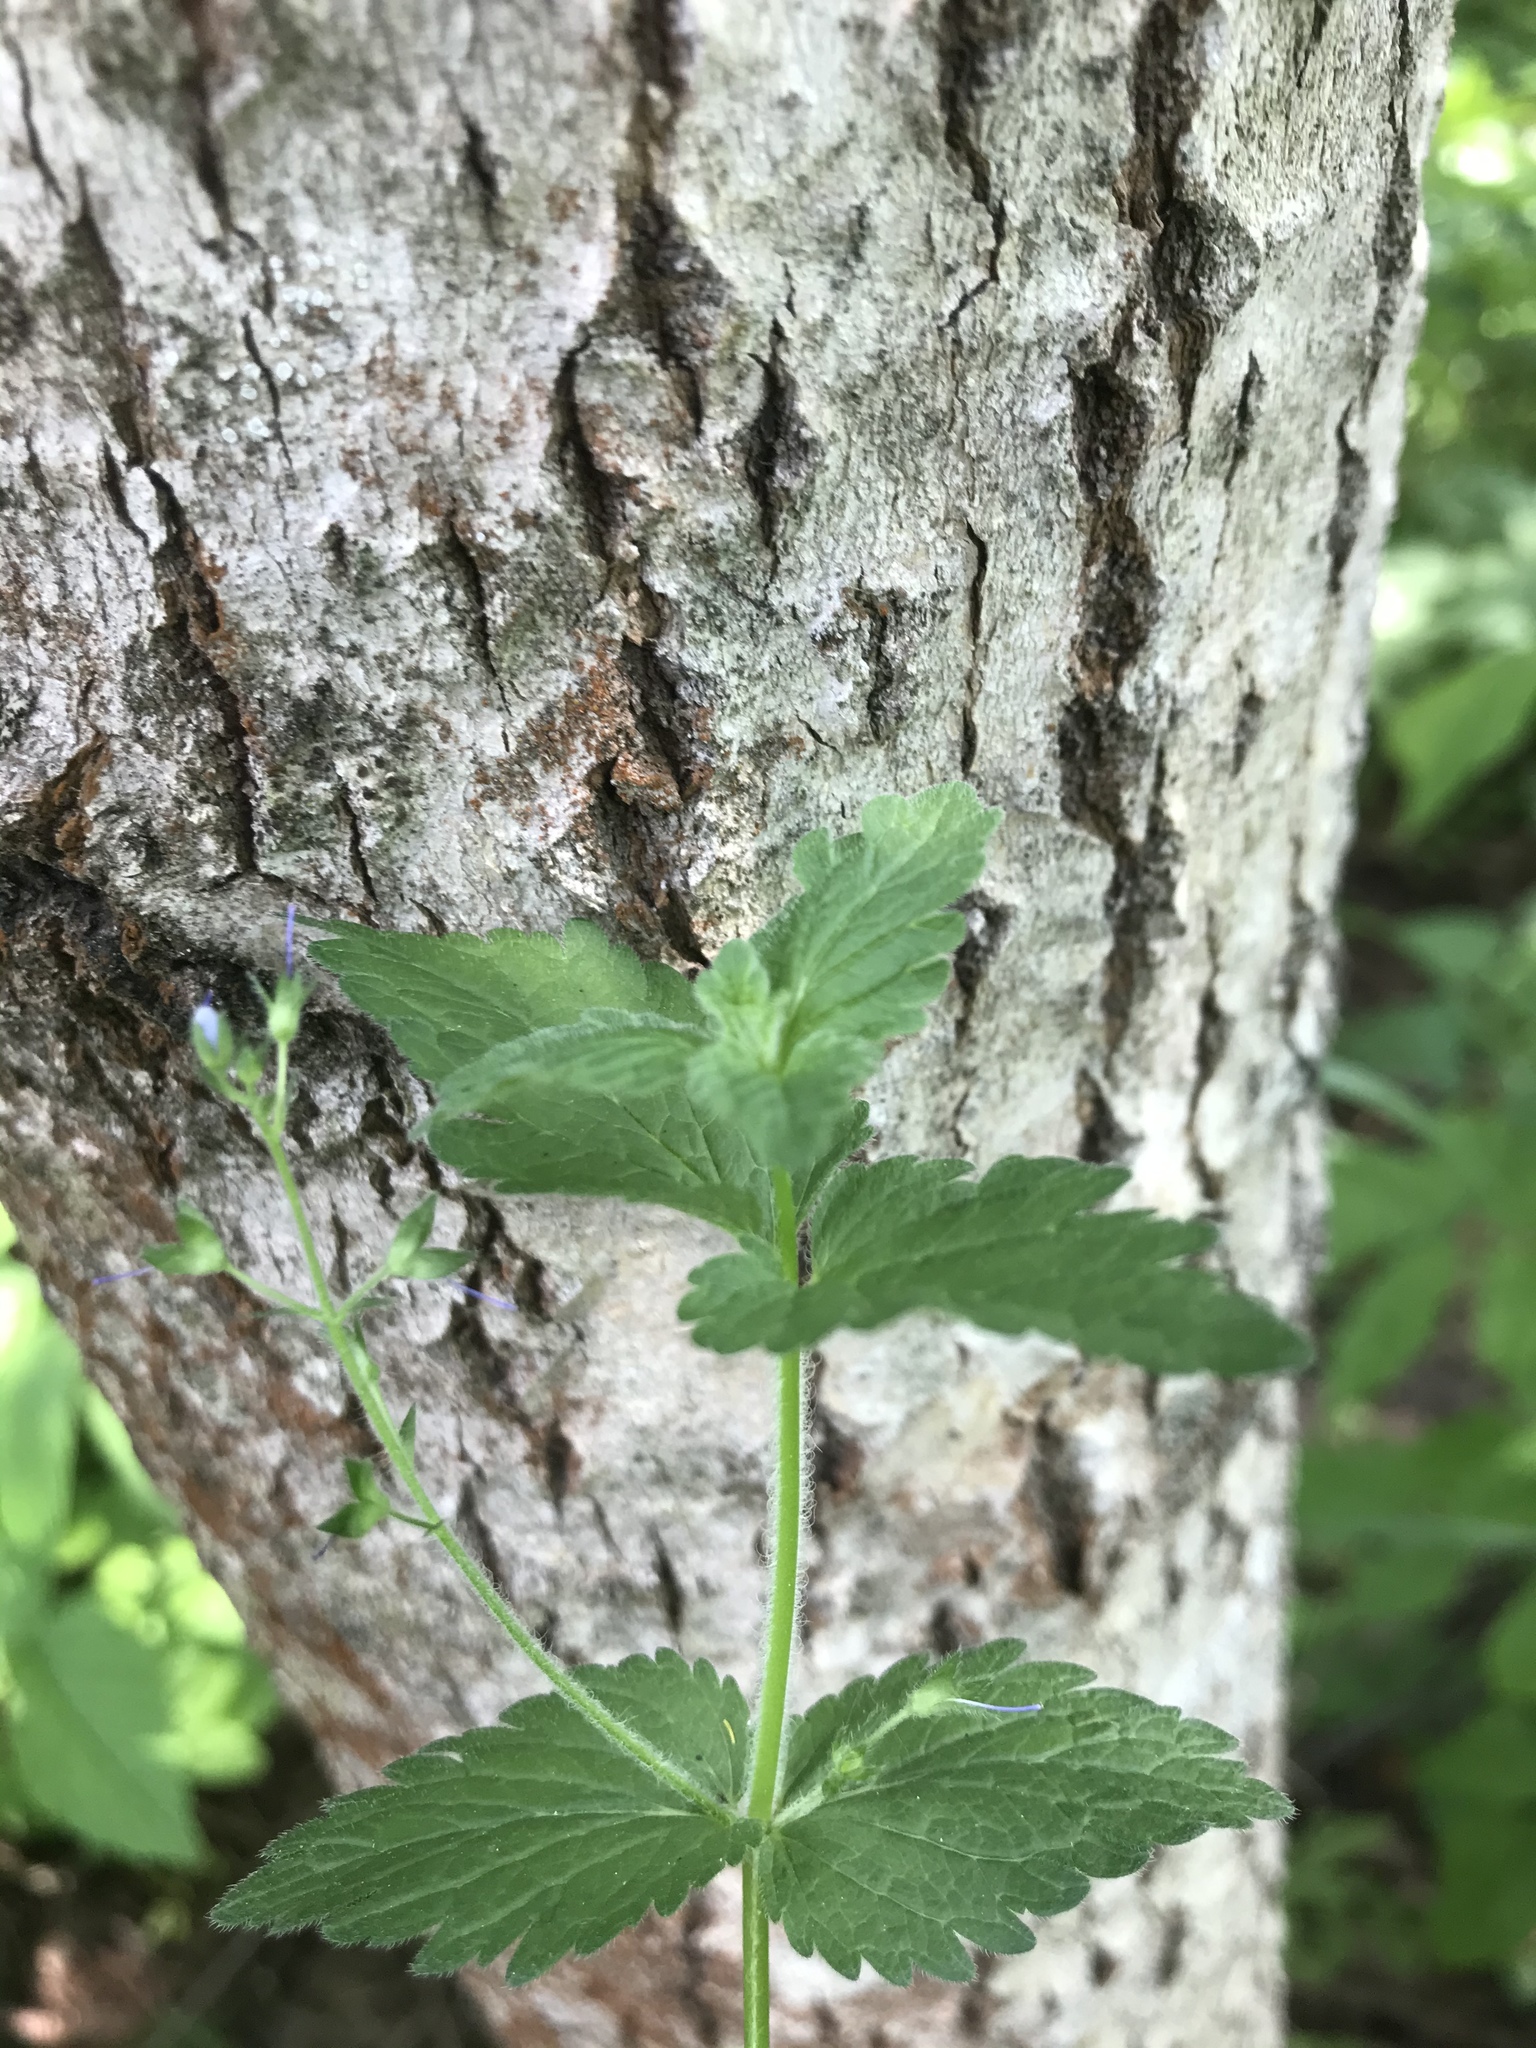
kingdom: Plantae
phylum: Tracheophyta
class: Magnoliopsida
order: Lamiales
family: Plantaginaceae
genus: Veronica
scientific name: Veronica chamaedrys
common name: Germander speedwell
